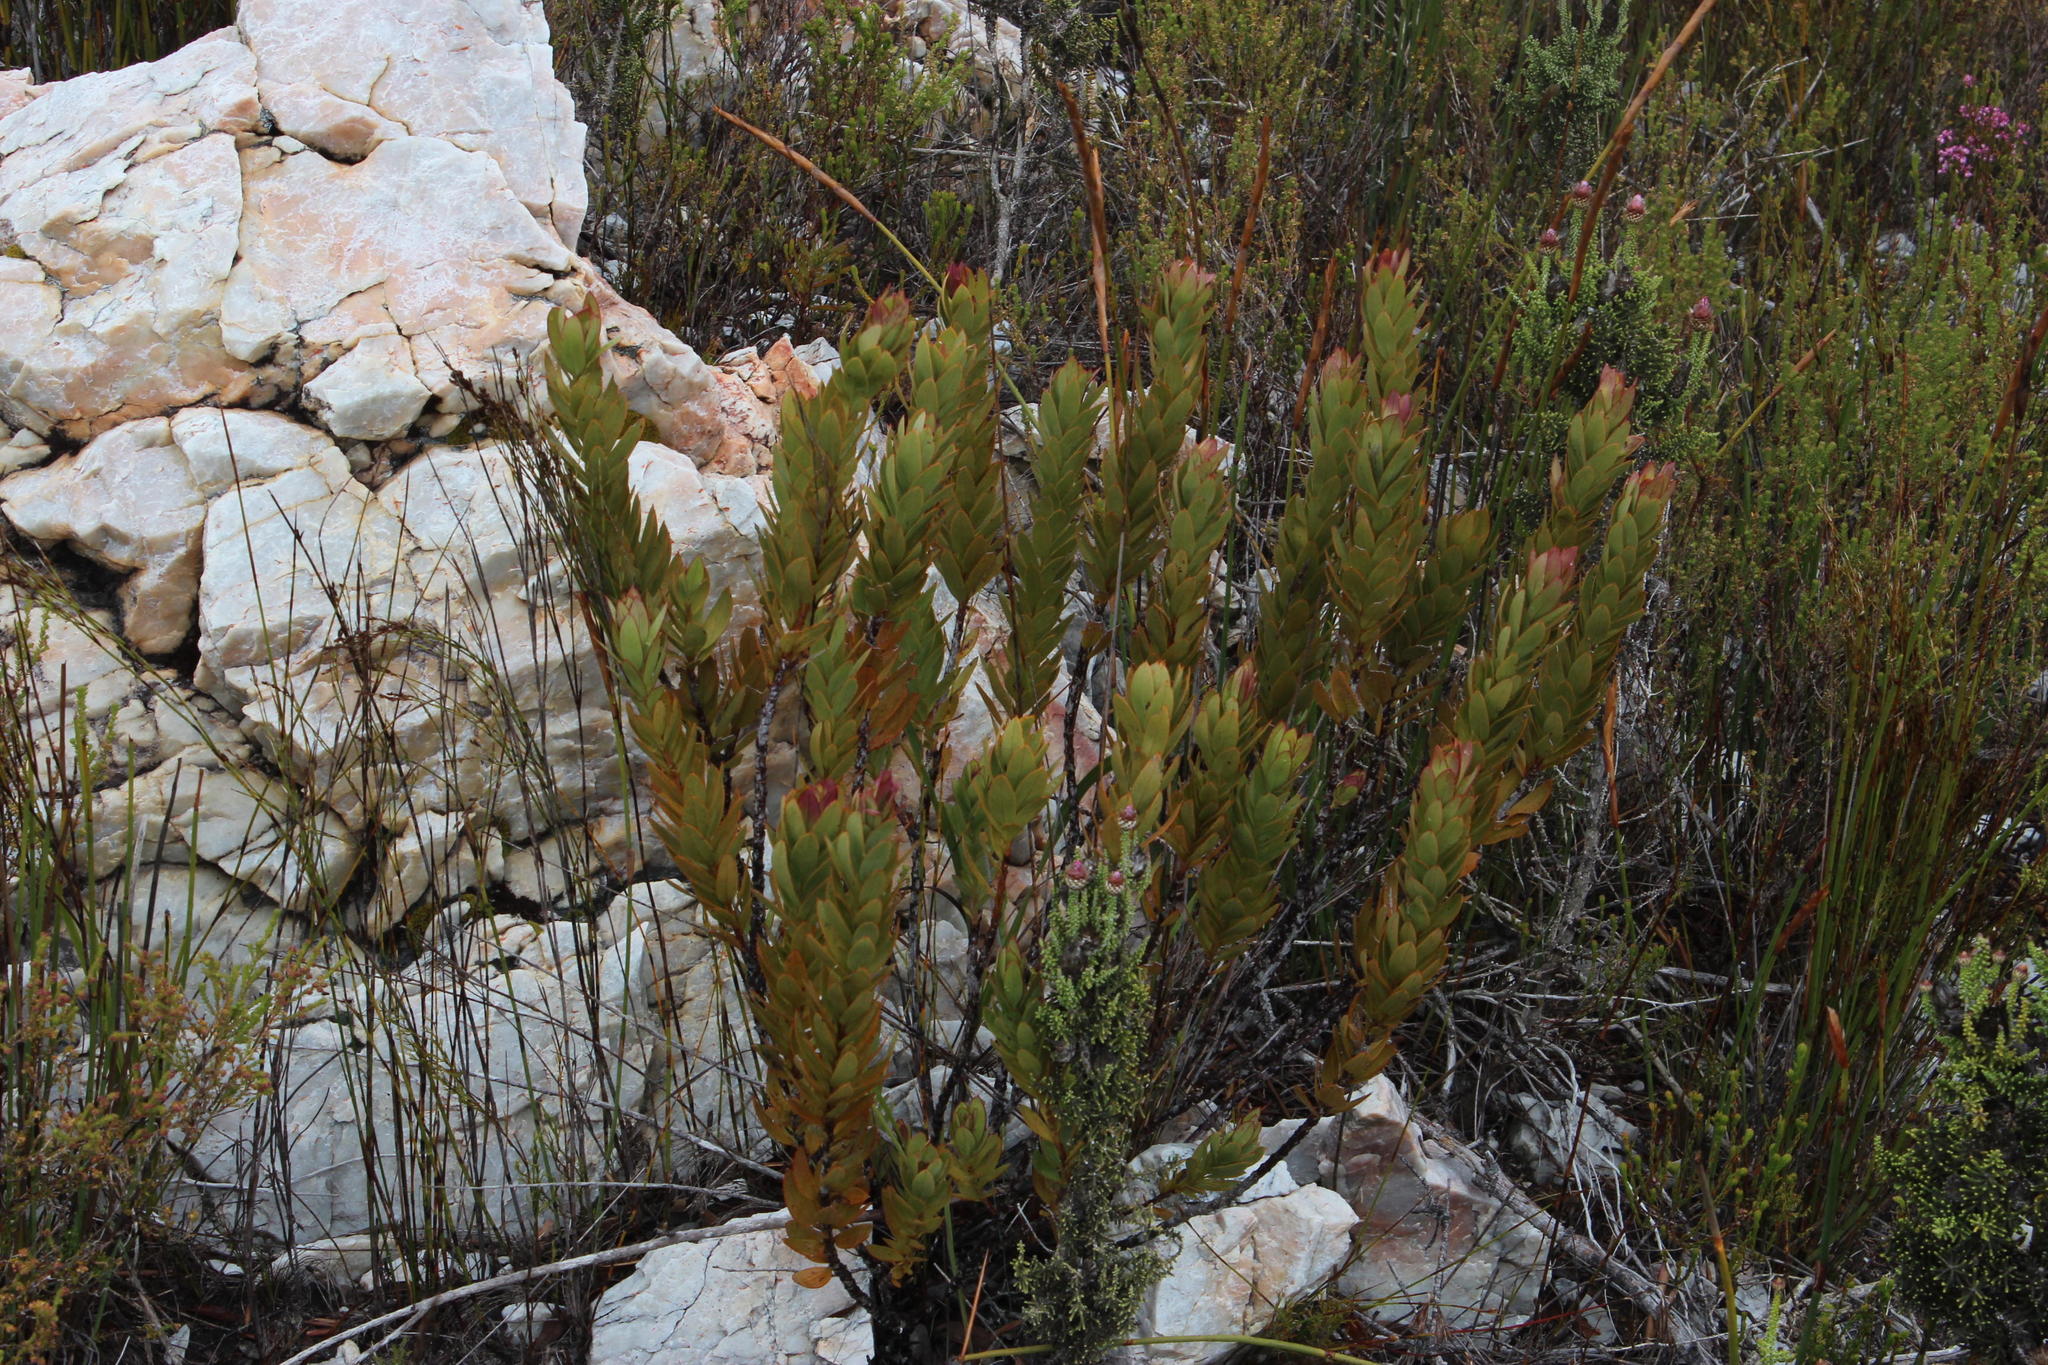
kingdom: Plantae
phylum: Tracheophyta
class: Magnoliopsida
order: Santalales
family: Santalaceae
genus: Osyris
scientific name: Osyris compressa
